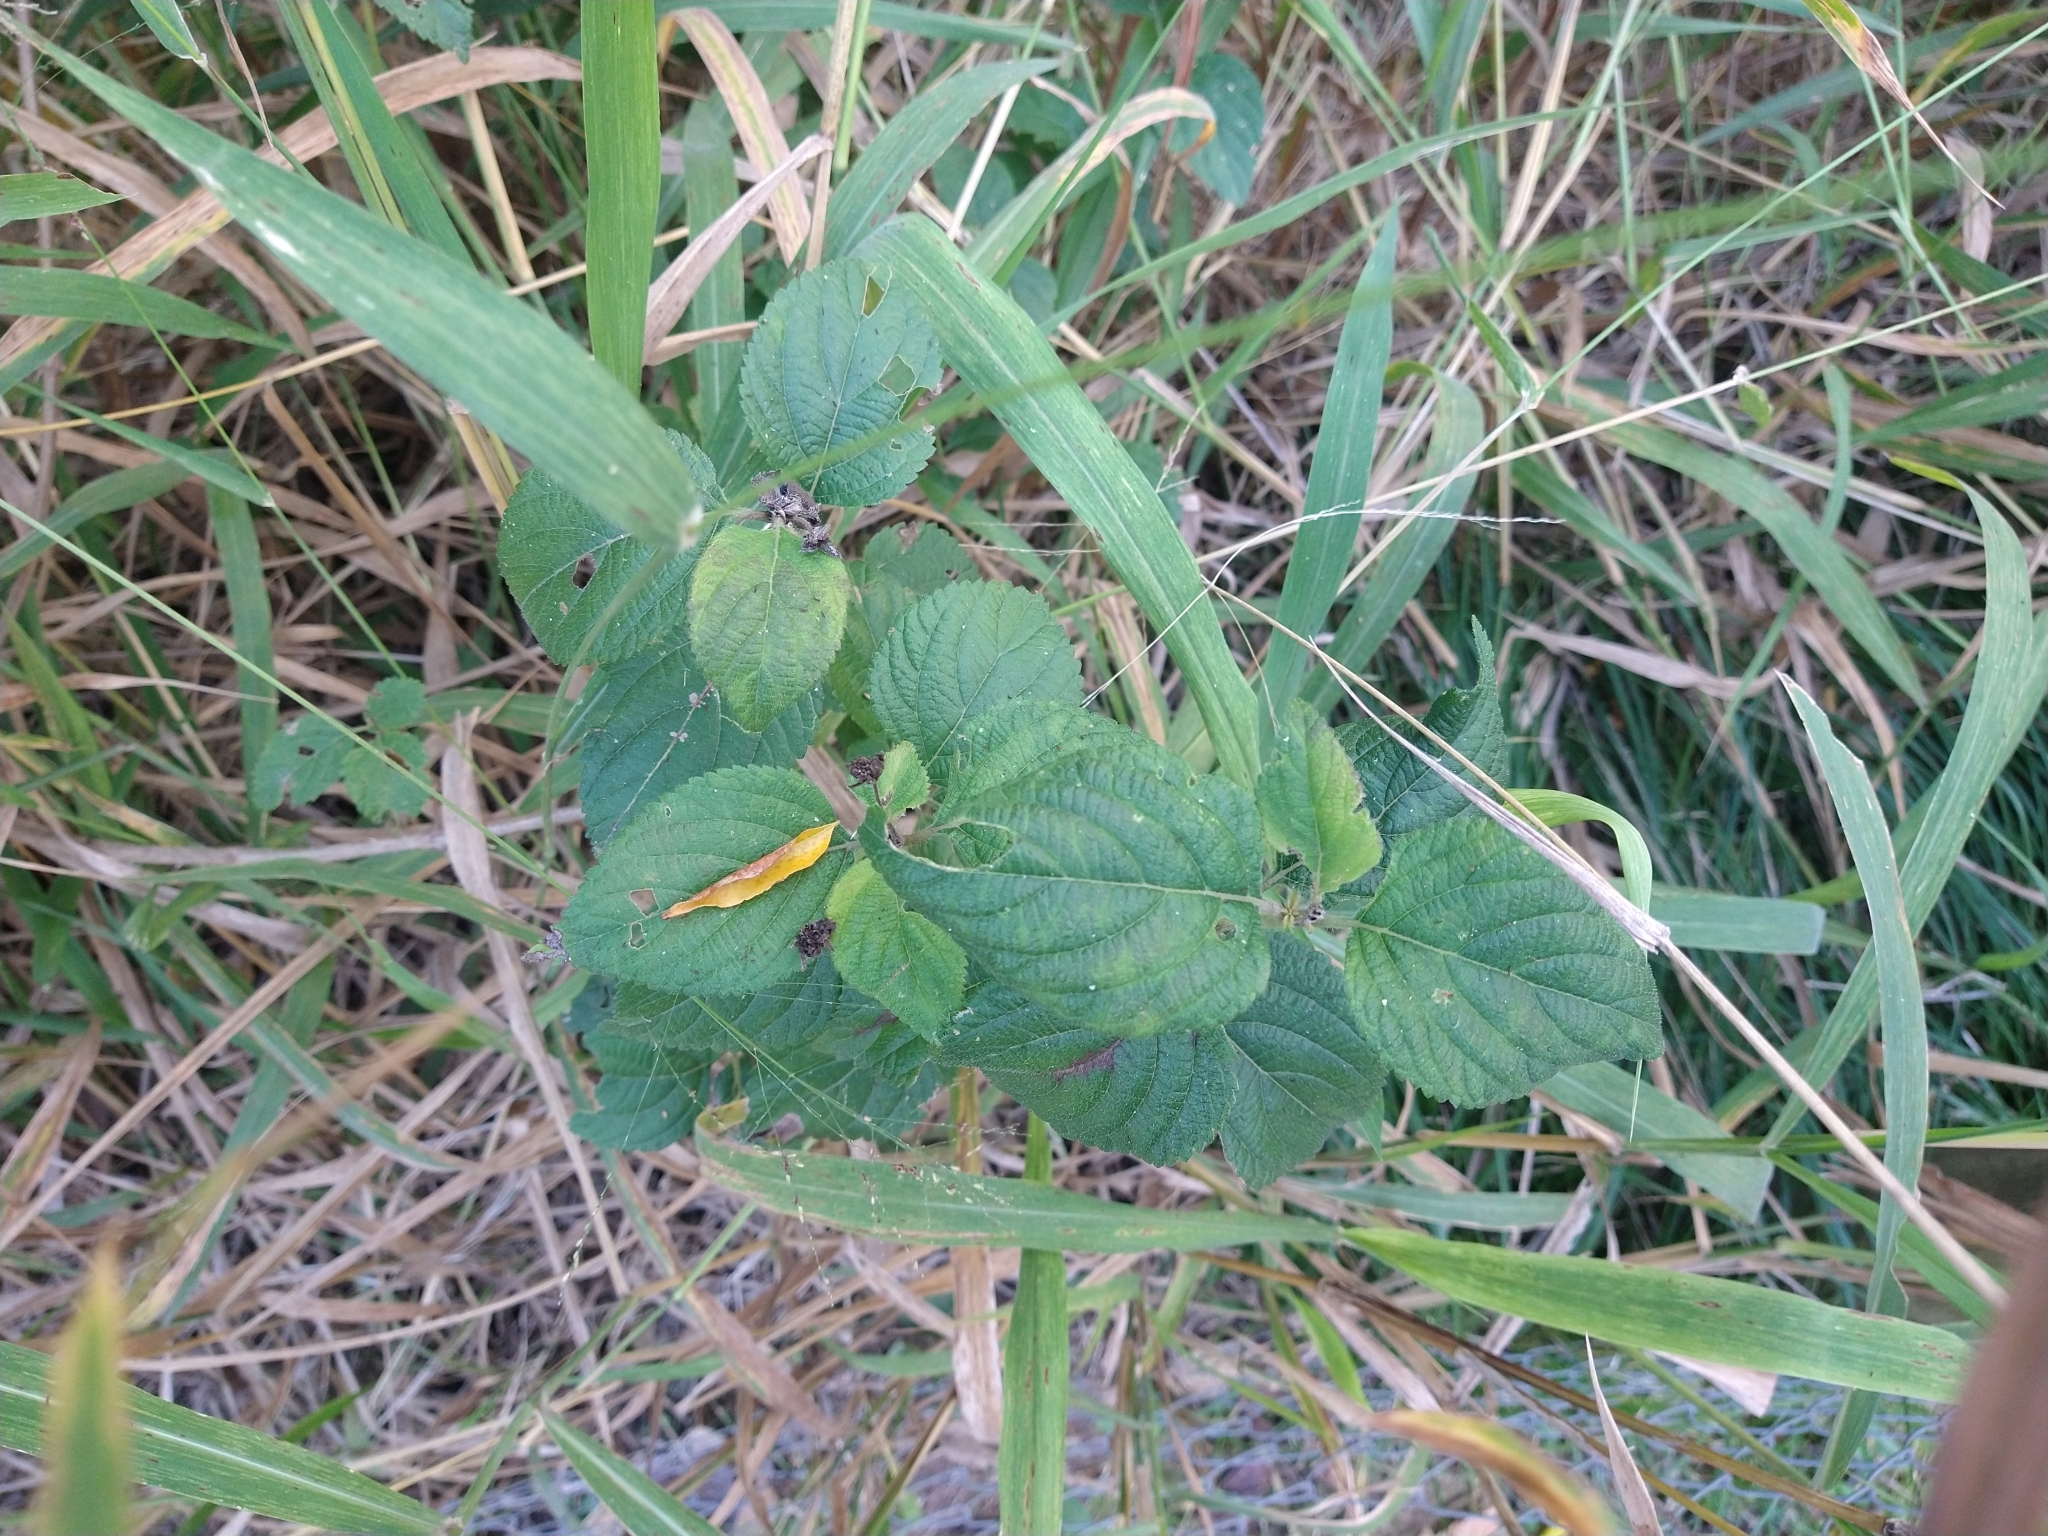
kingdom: Plantae
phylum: Tracheophyta
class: Magnoliopsida
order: Lamiales
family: Verbenaceae
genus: Lantana
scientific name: Lantana camara
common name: Lantana
